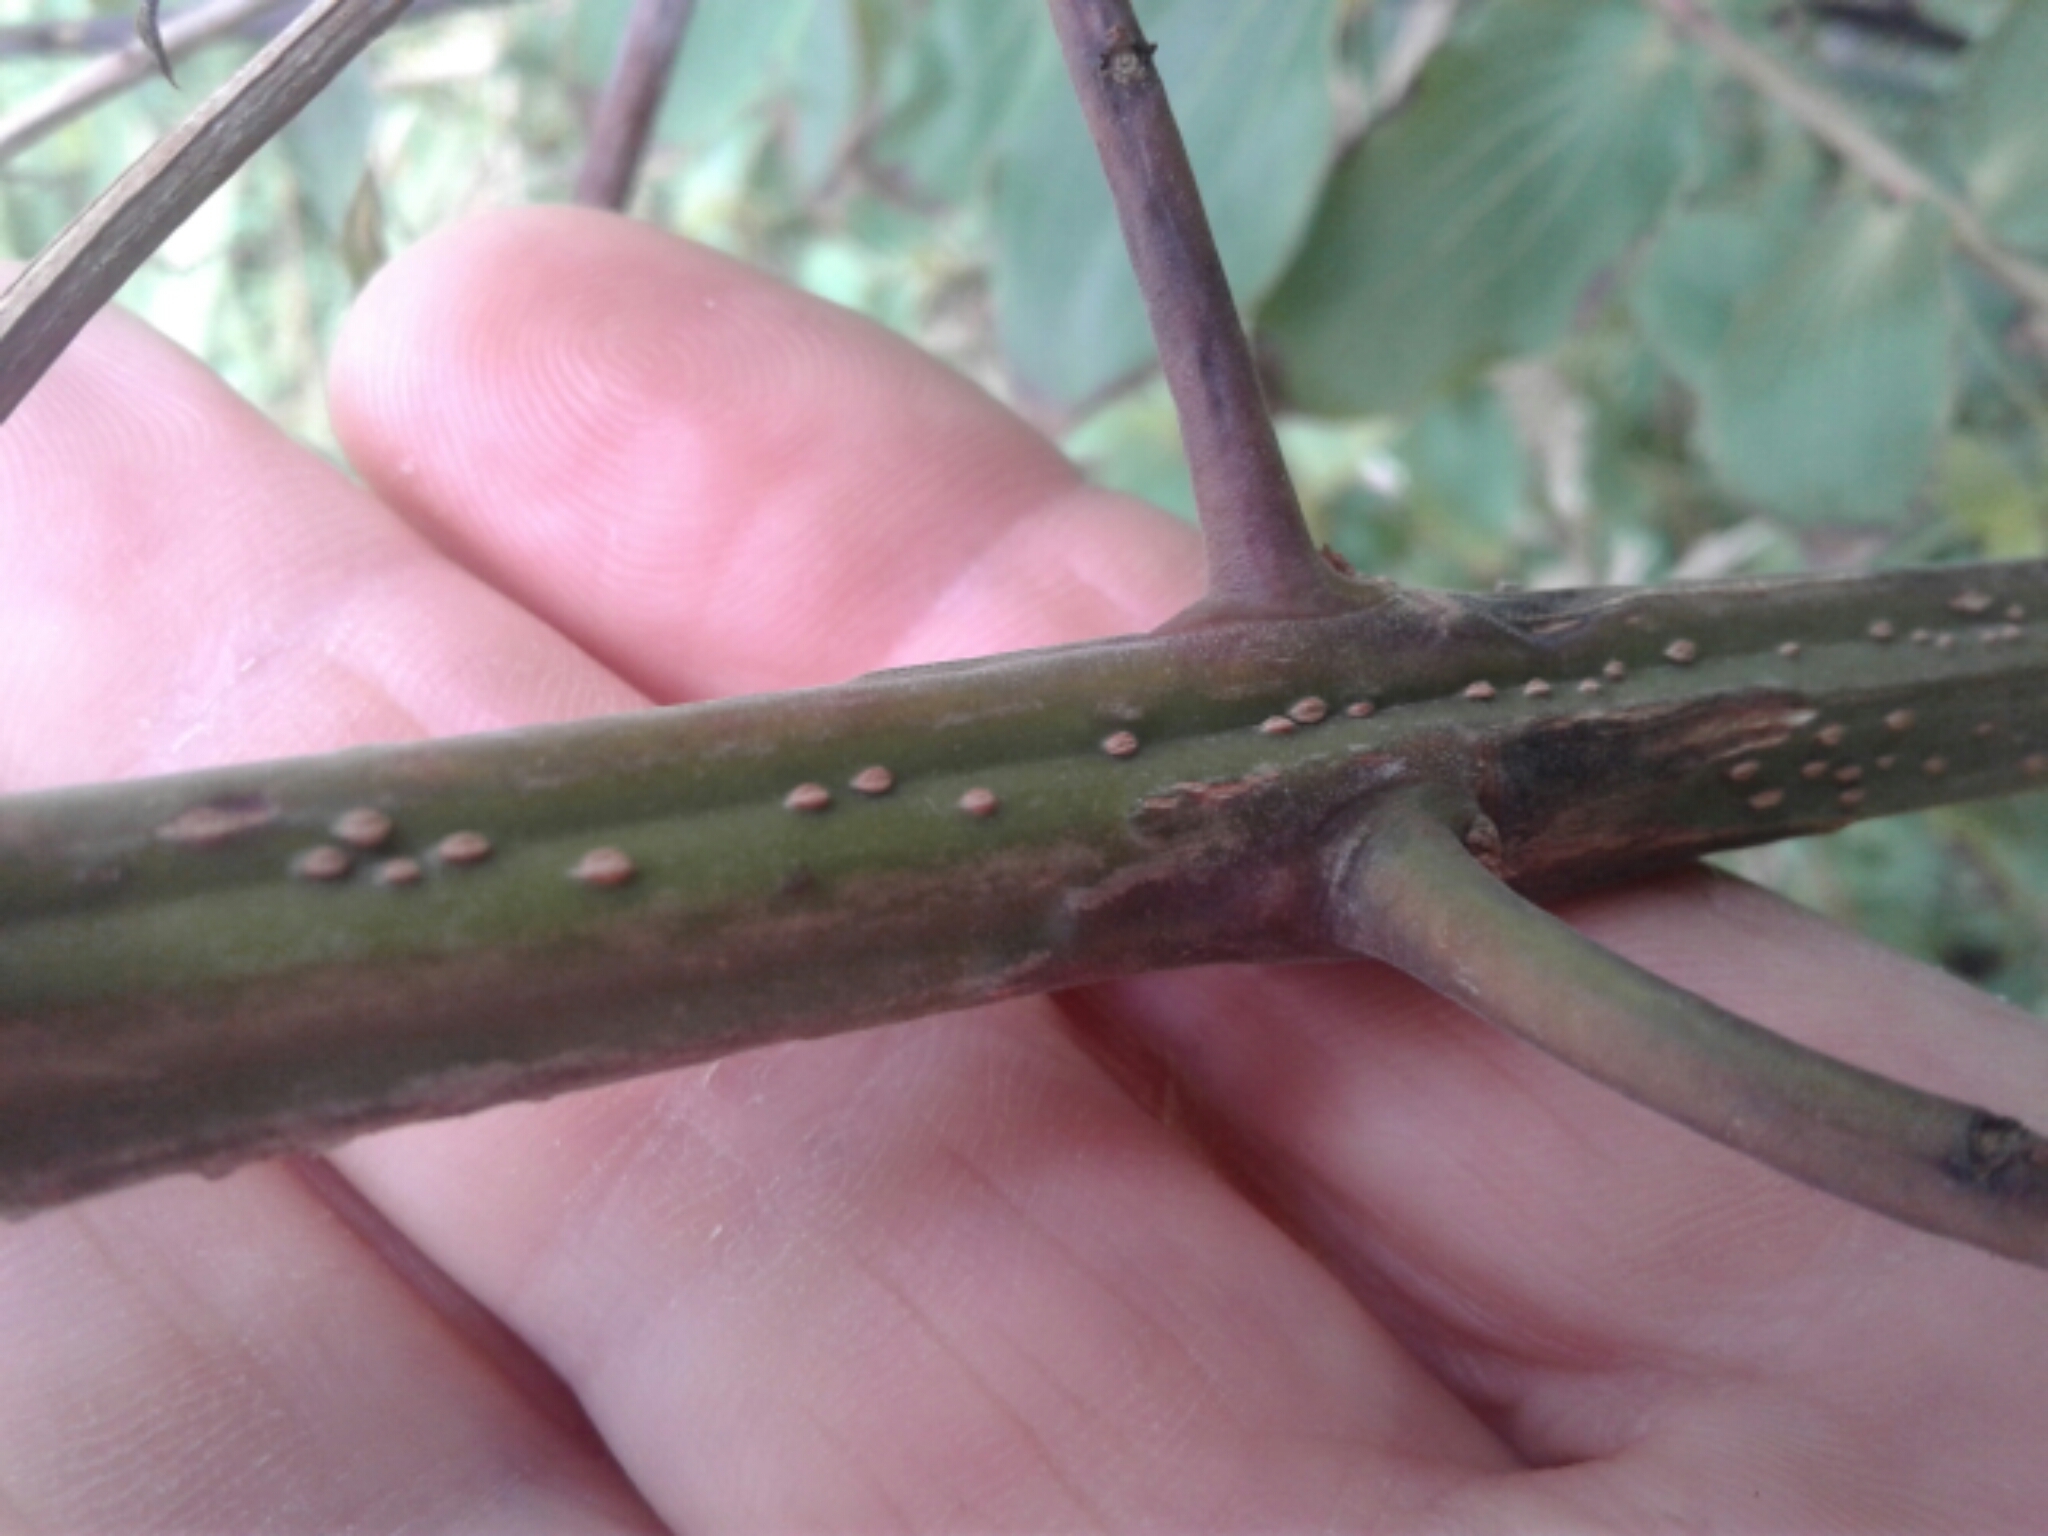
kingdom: Plantae
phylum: Tracheophyta
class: Magnoliopsida
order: Cucurbitales
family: Coriariaceae
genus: Coriaria
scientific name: Coriaria arborea
